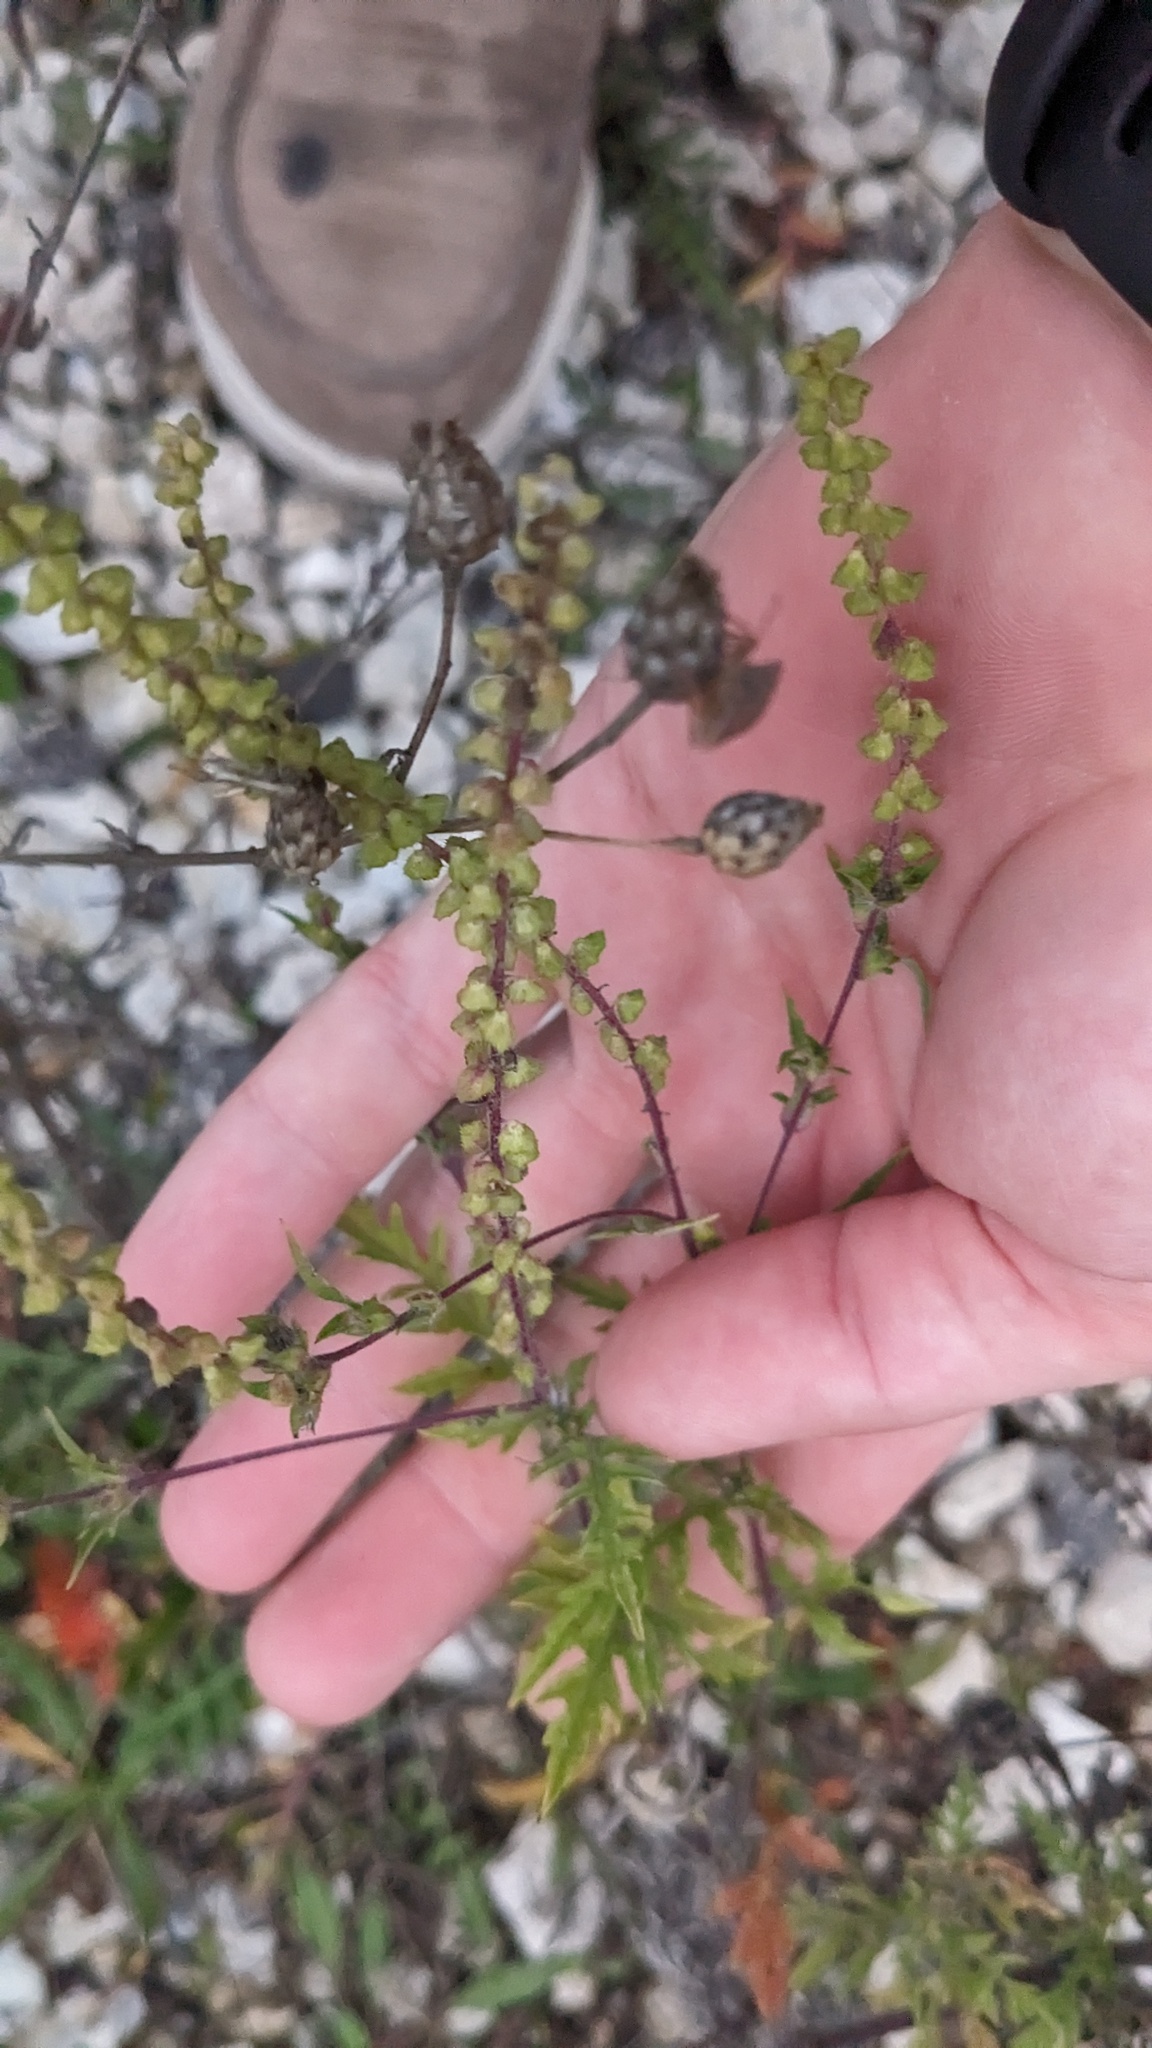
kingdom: Plantae
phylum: Tracheophyta
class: Magnoliopsida
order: Asterales
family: Asteraceae
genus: Ambrosia
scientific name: Ambrosia artemisiifolia
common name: Annual ragweed
